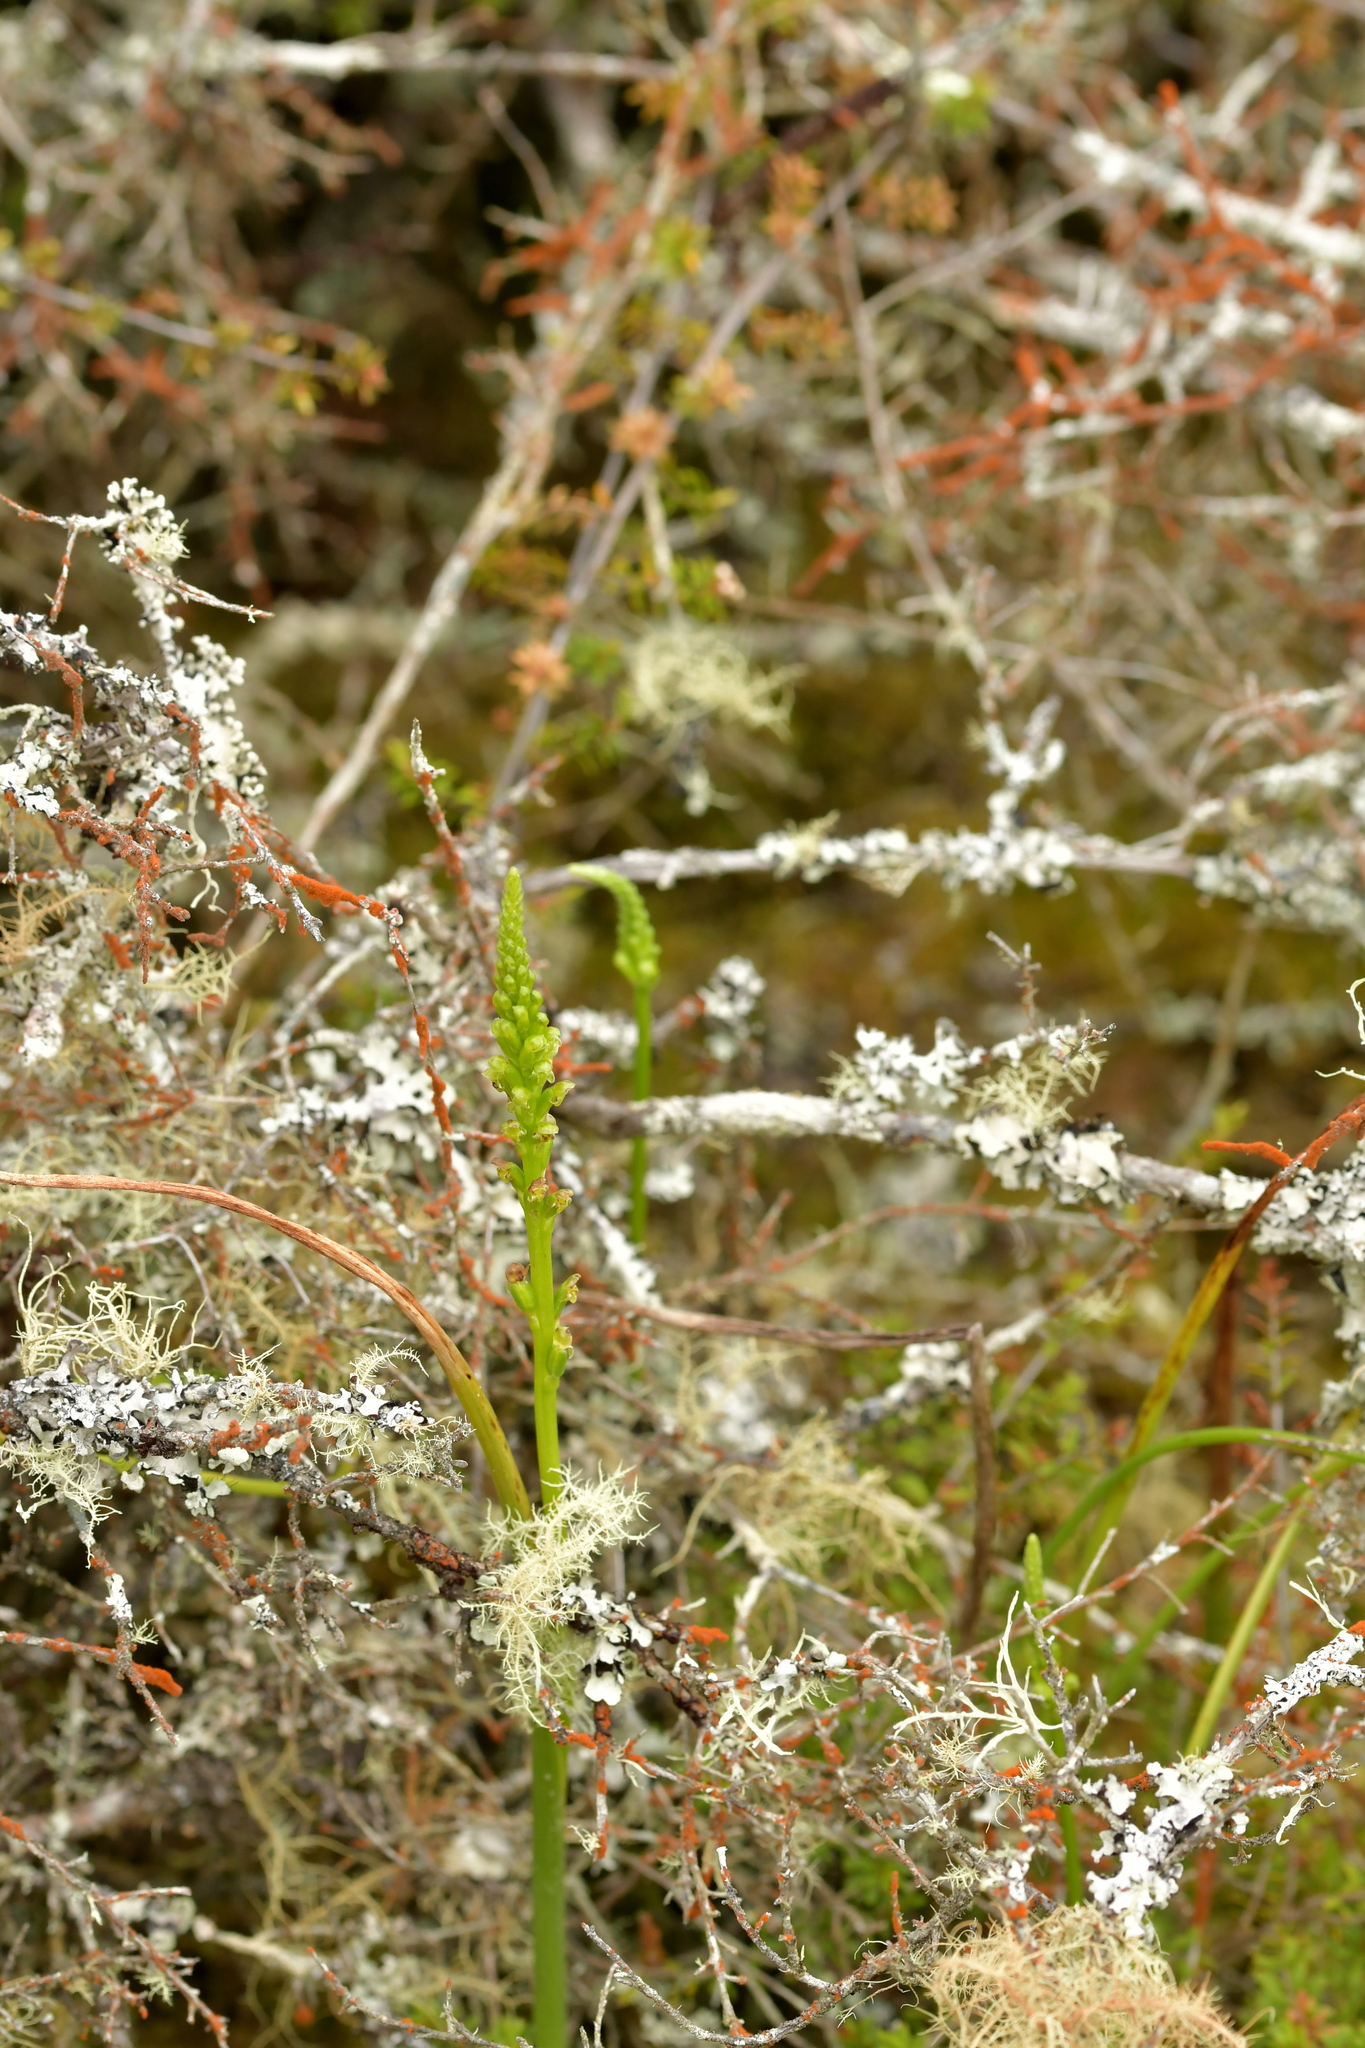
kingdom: Plantae
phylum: Tracheophyta
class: Liliopsida
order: Asparagales
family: Orchidaceae
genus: Microtis
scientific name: Microtis unifolia
